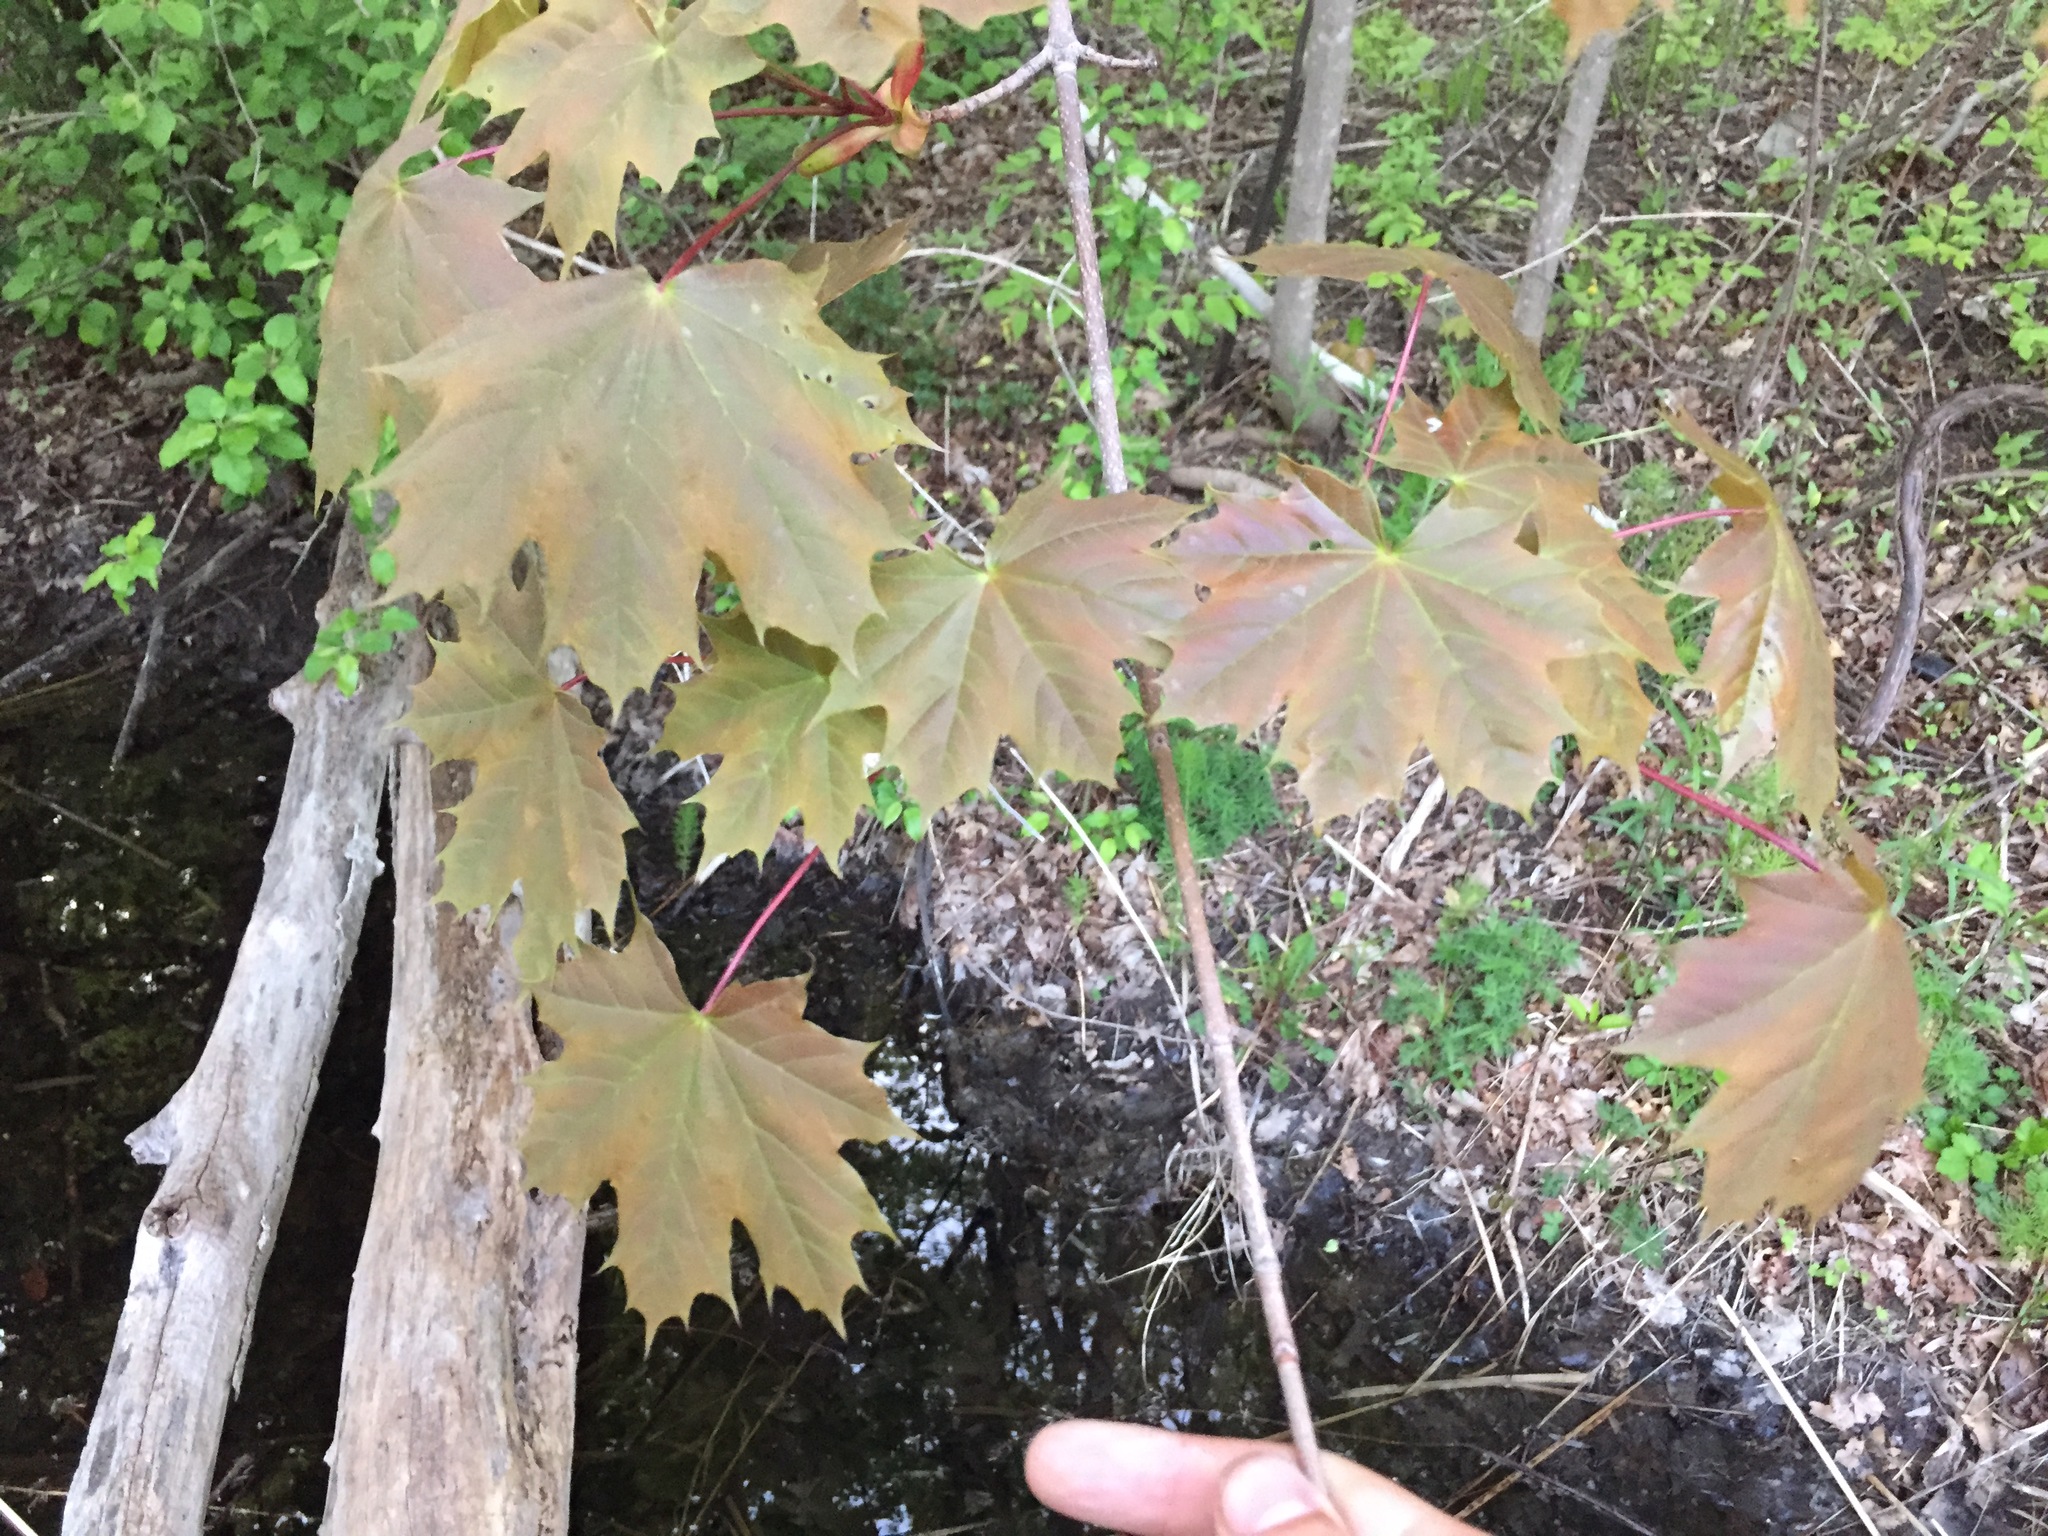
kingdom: Plantae
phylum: Tracheophyta
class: Magnoliopsida
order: Sapindales
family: Sapindaceae
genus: Acer
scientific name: Acer platanoides
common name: Norway maple
